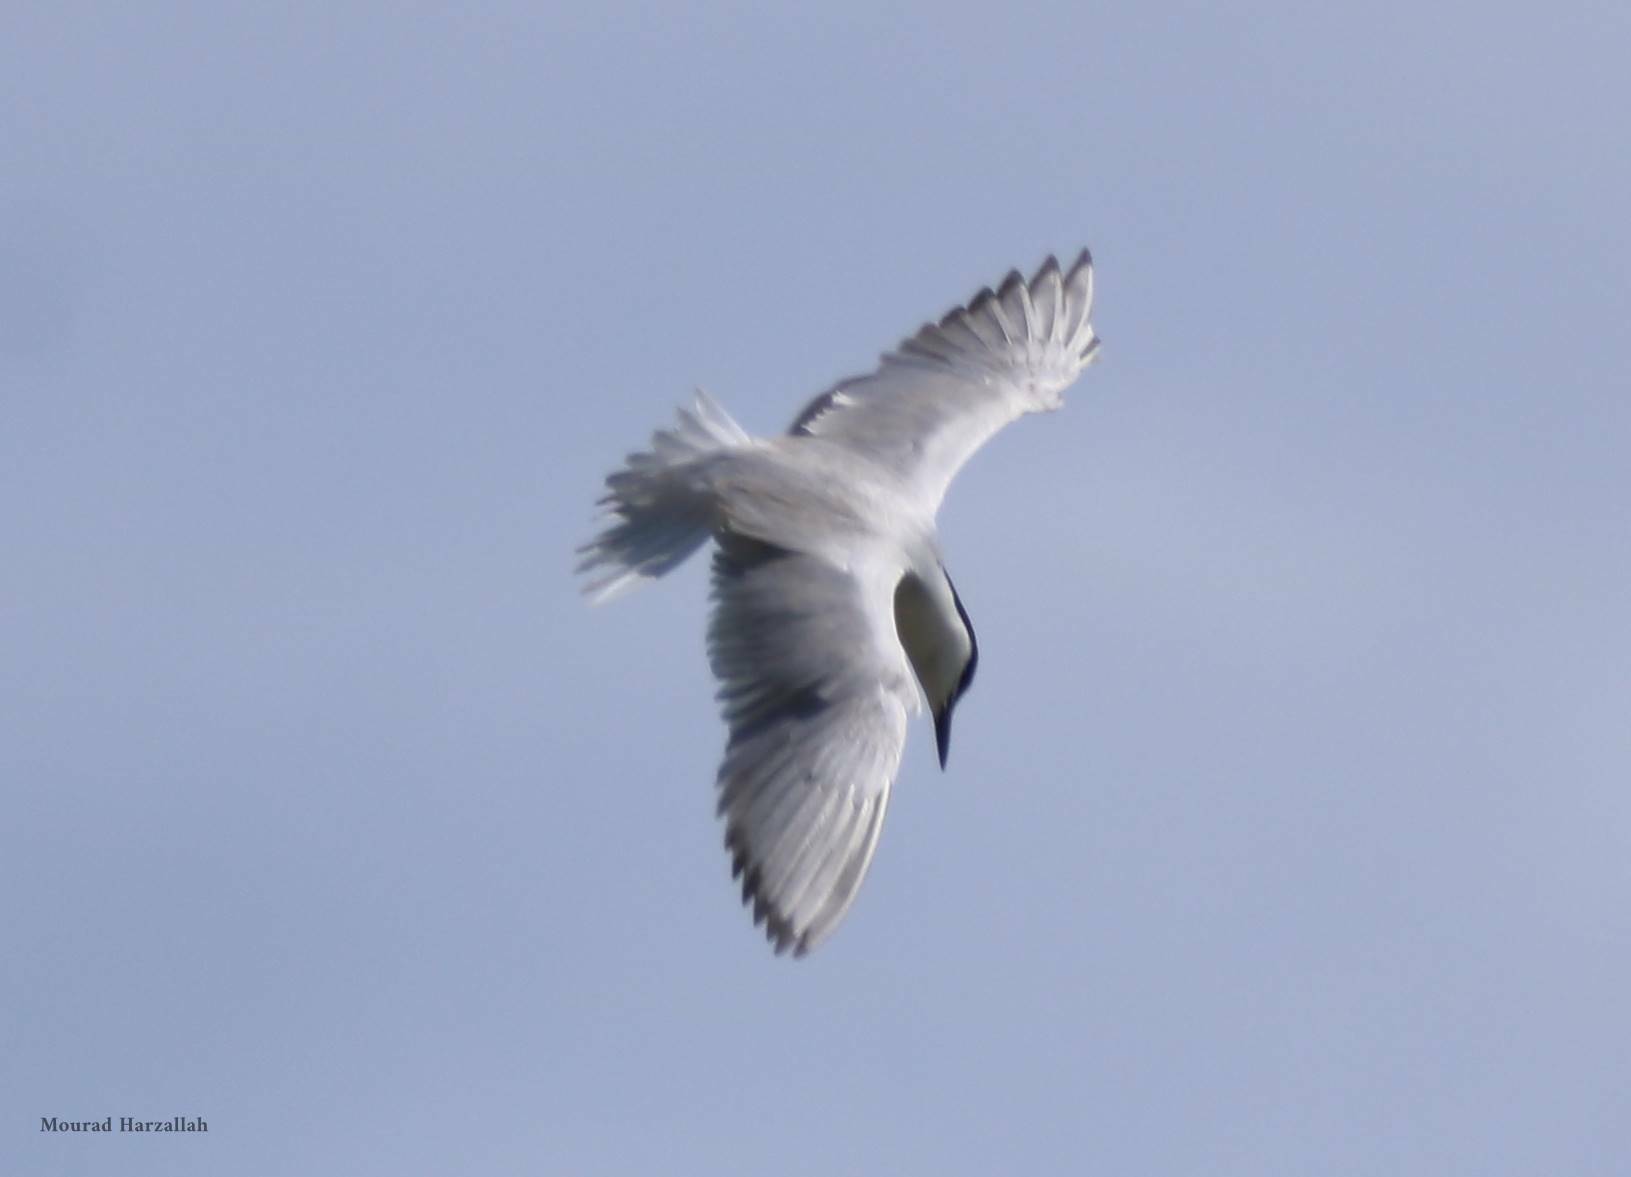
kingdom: Animalia
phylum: Chordata
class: Aves
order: Charadriiformes
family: Laridae
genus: Gelochelidon
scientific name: Gelochelidon nilotica
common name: Gull-billed tern
